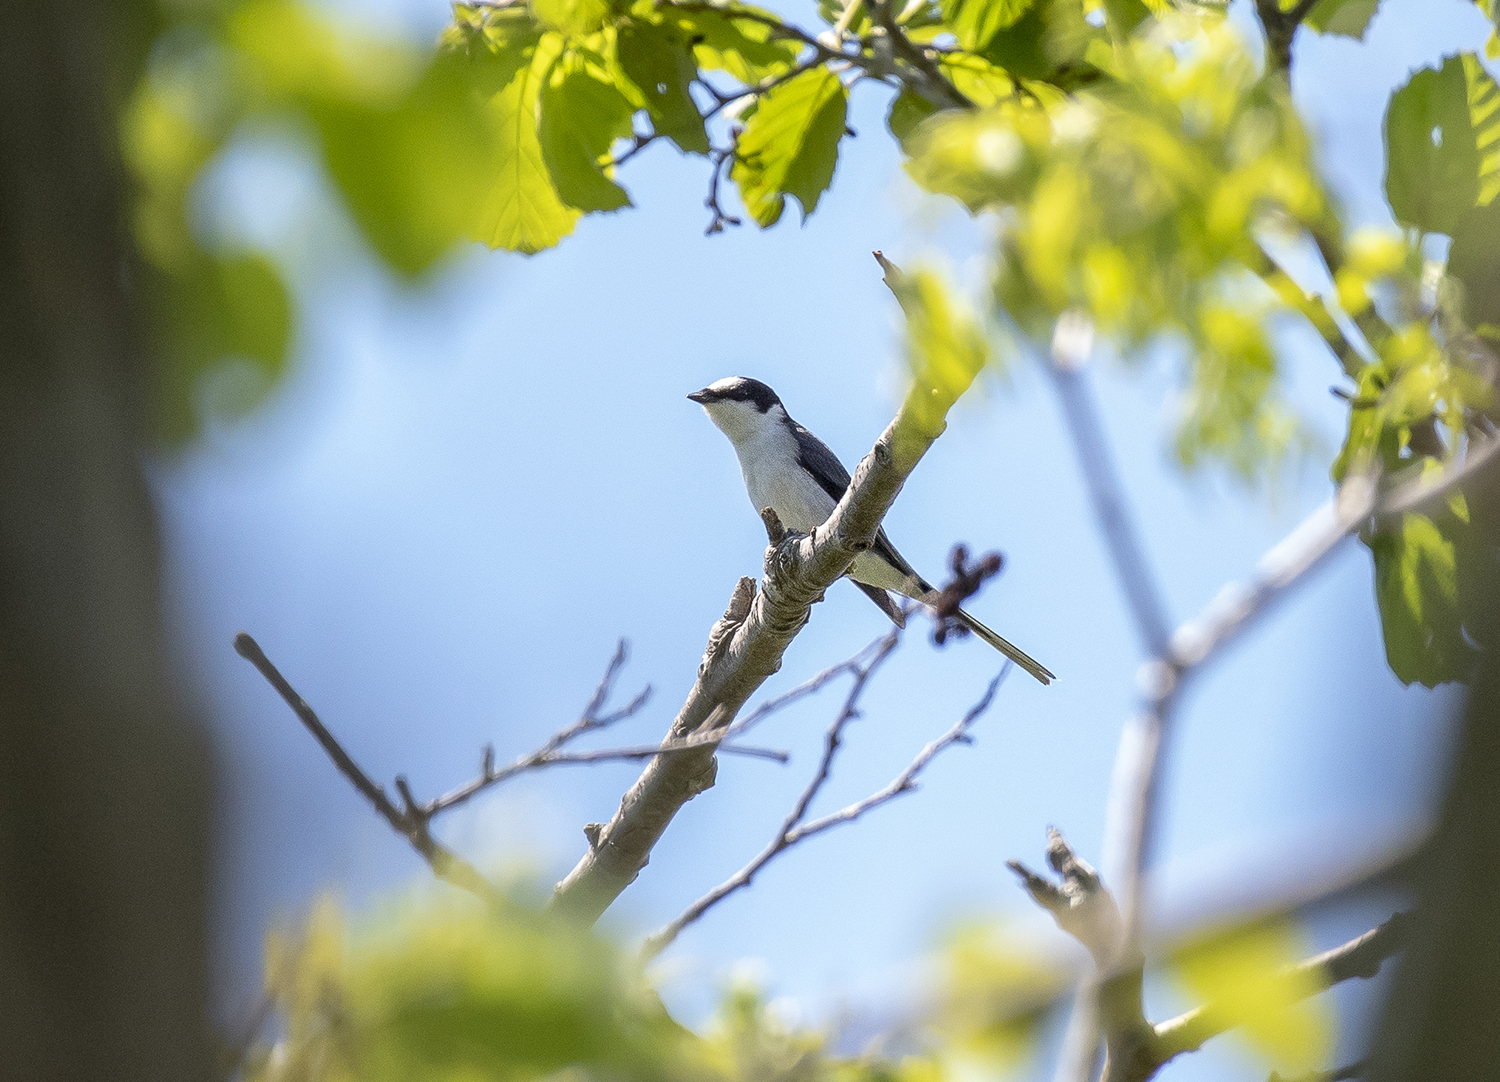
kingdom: Animalia
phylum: Chordata
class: Aves
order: Passeriformes
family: Campephagidae
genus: Pericrocotus
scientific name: Pericrocotus divaricatus
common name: Ashy minivet
